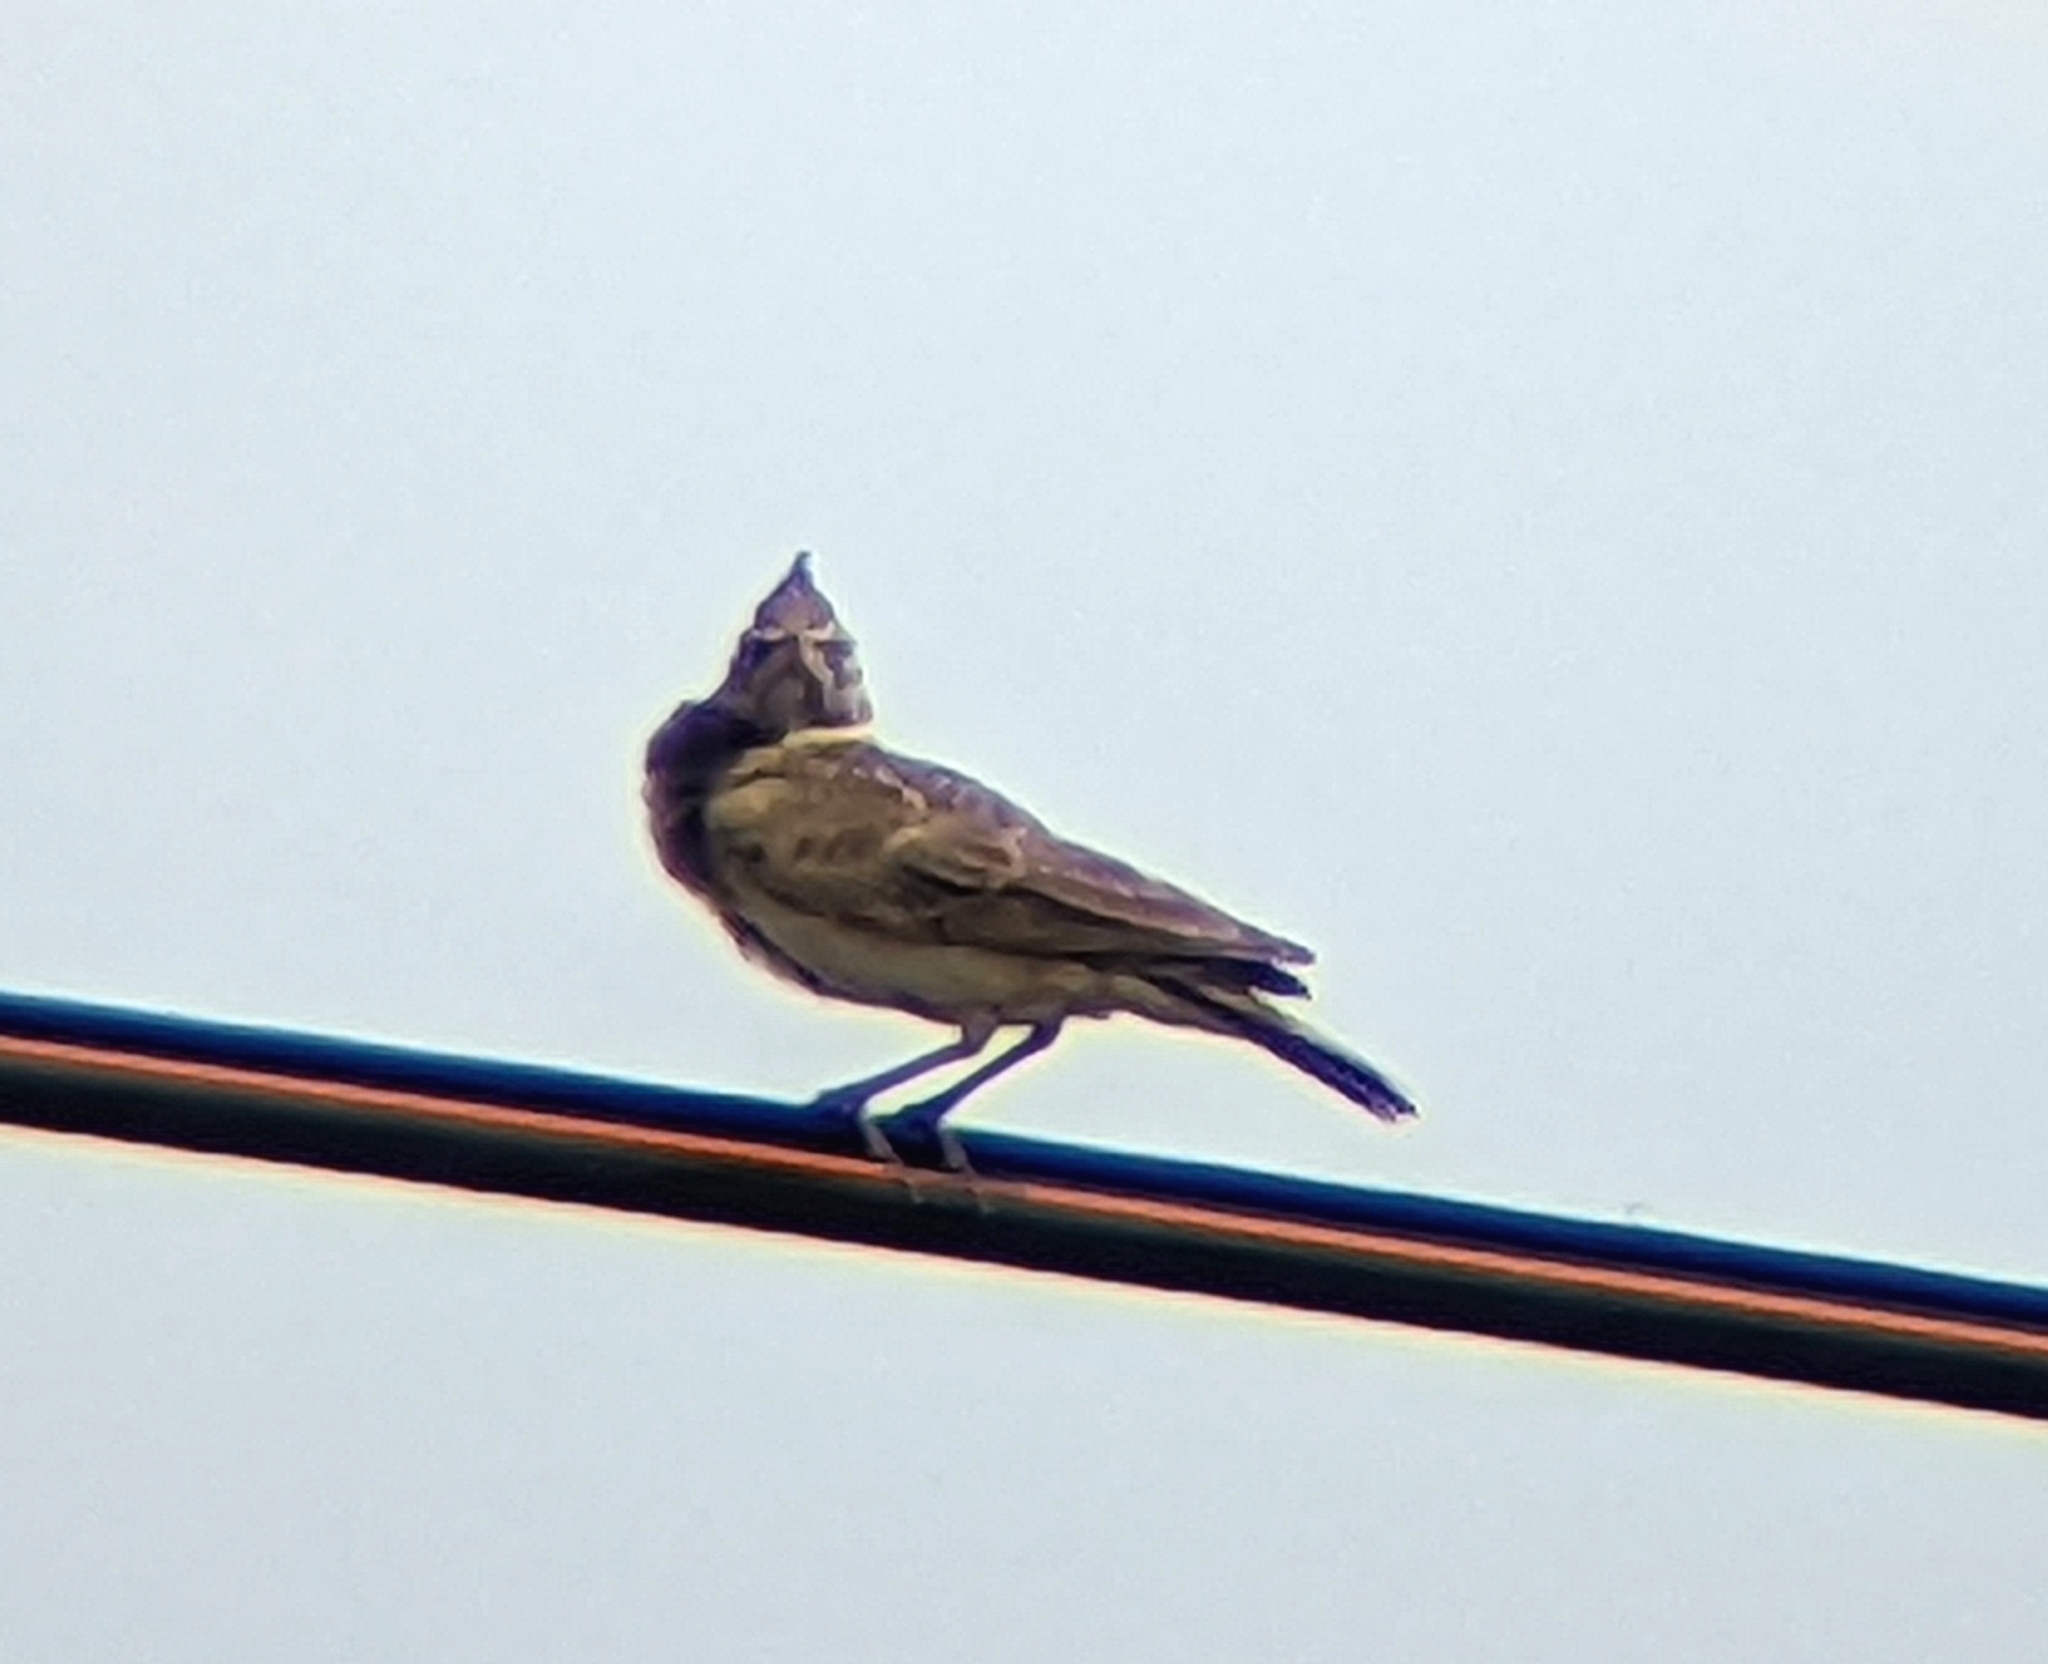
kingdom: Animalia
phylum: Chordata
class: Aves
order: Passeriformes
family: Alaudidae
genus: Galerida
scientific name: Galerida cristata
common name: Crested lark
